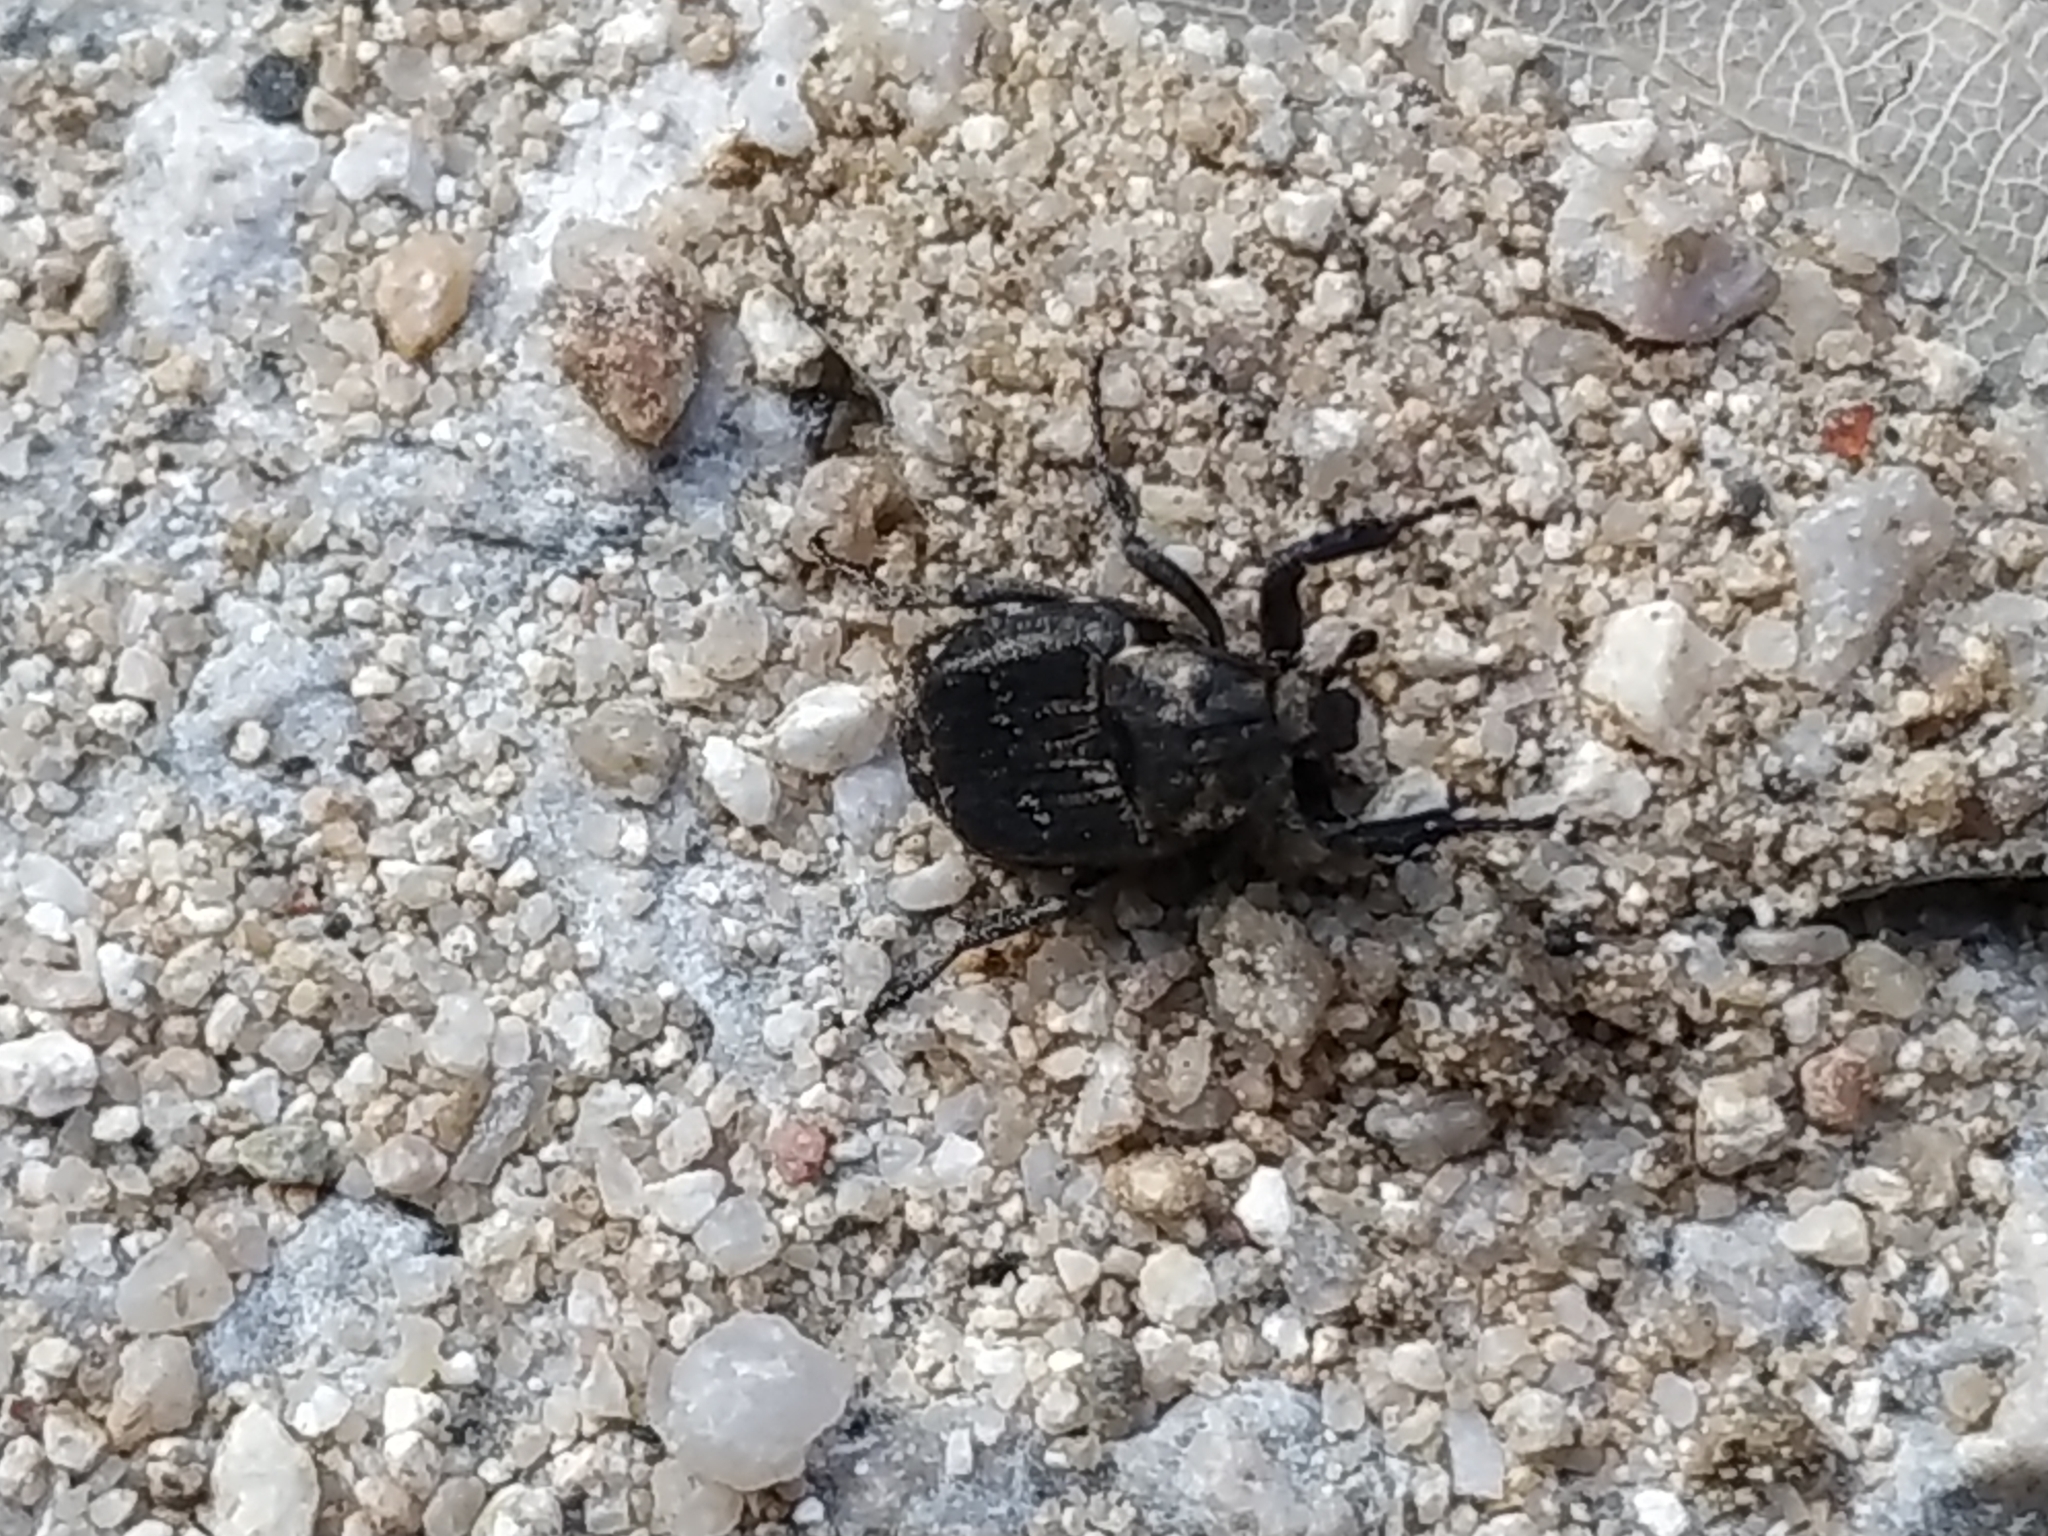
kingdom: Animalia
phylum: Arthropoda
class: Insecta
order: Coleoptera
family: Scarabaeidae
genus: Valgus
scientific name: Valgus hemipterus
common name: Bug flower chafer
